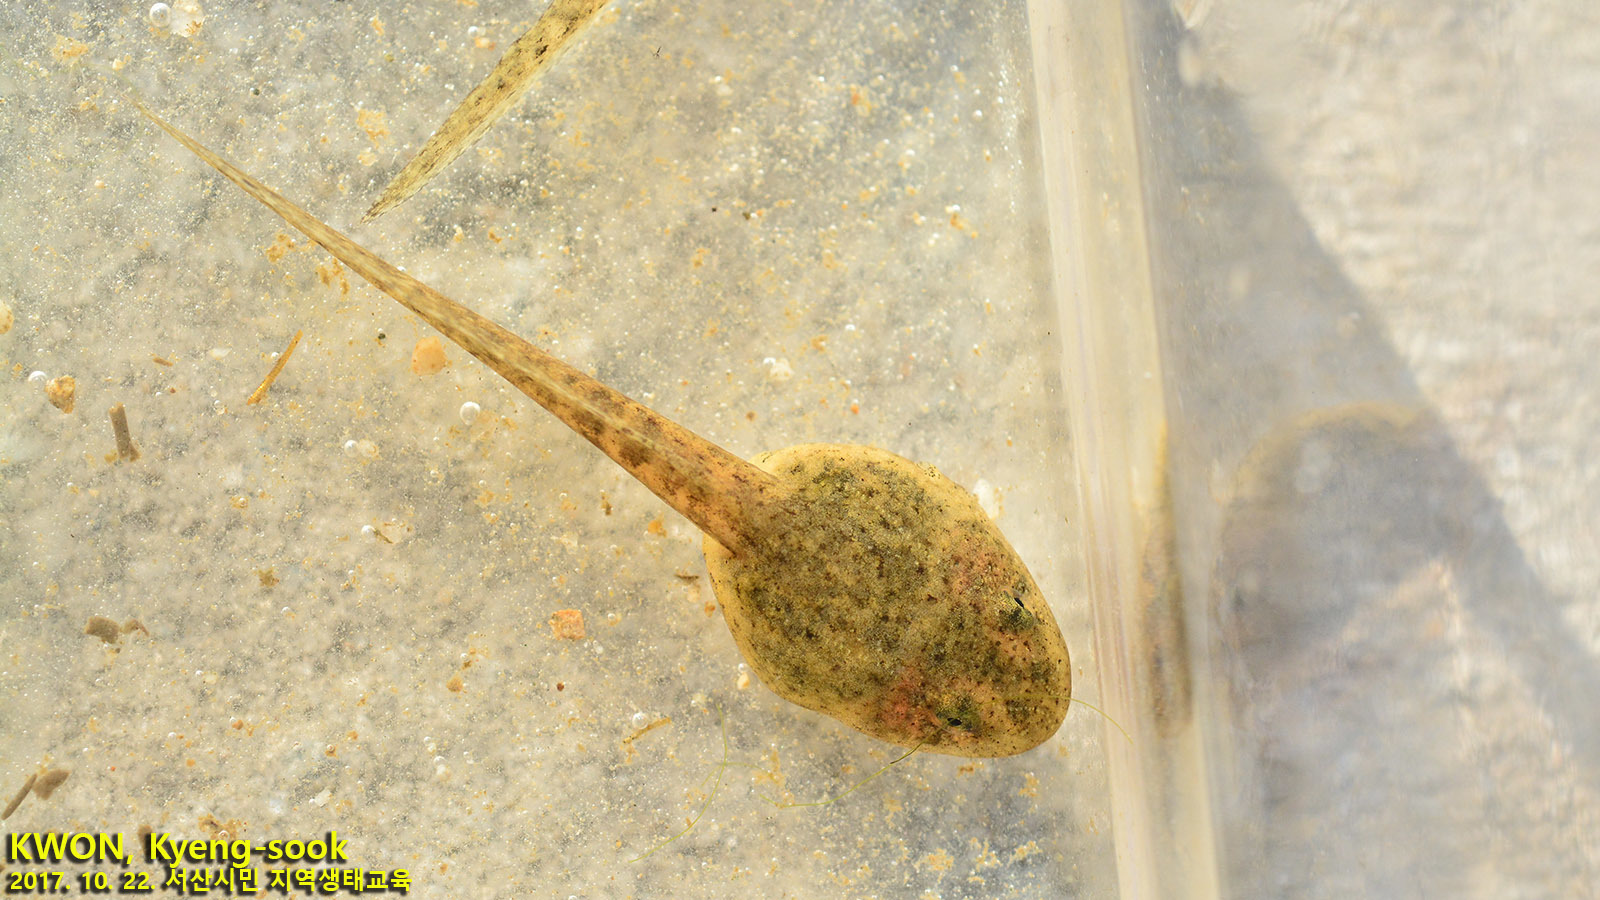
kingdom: Animalia
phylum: Chordata
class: Amphibia
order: Anura
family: Ranidae
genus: Glandirana
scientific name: Glandirana emeljanovi
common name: Northeast china rough-skinned frog
